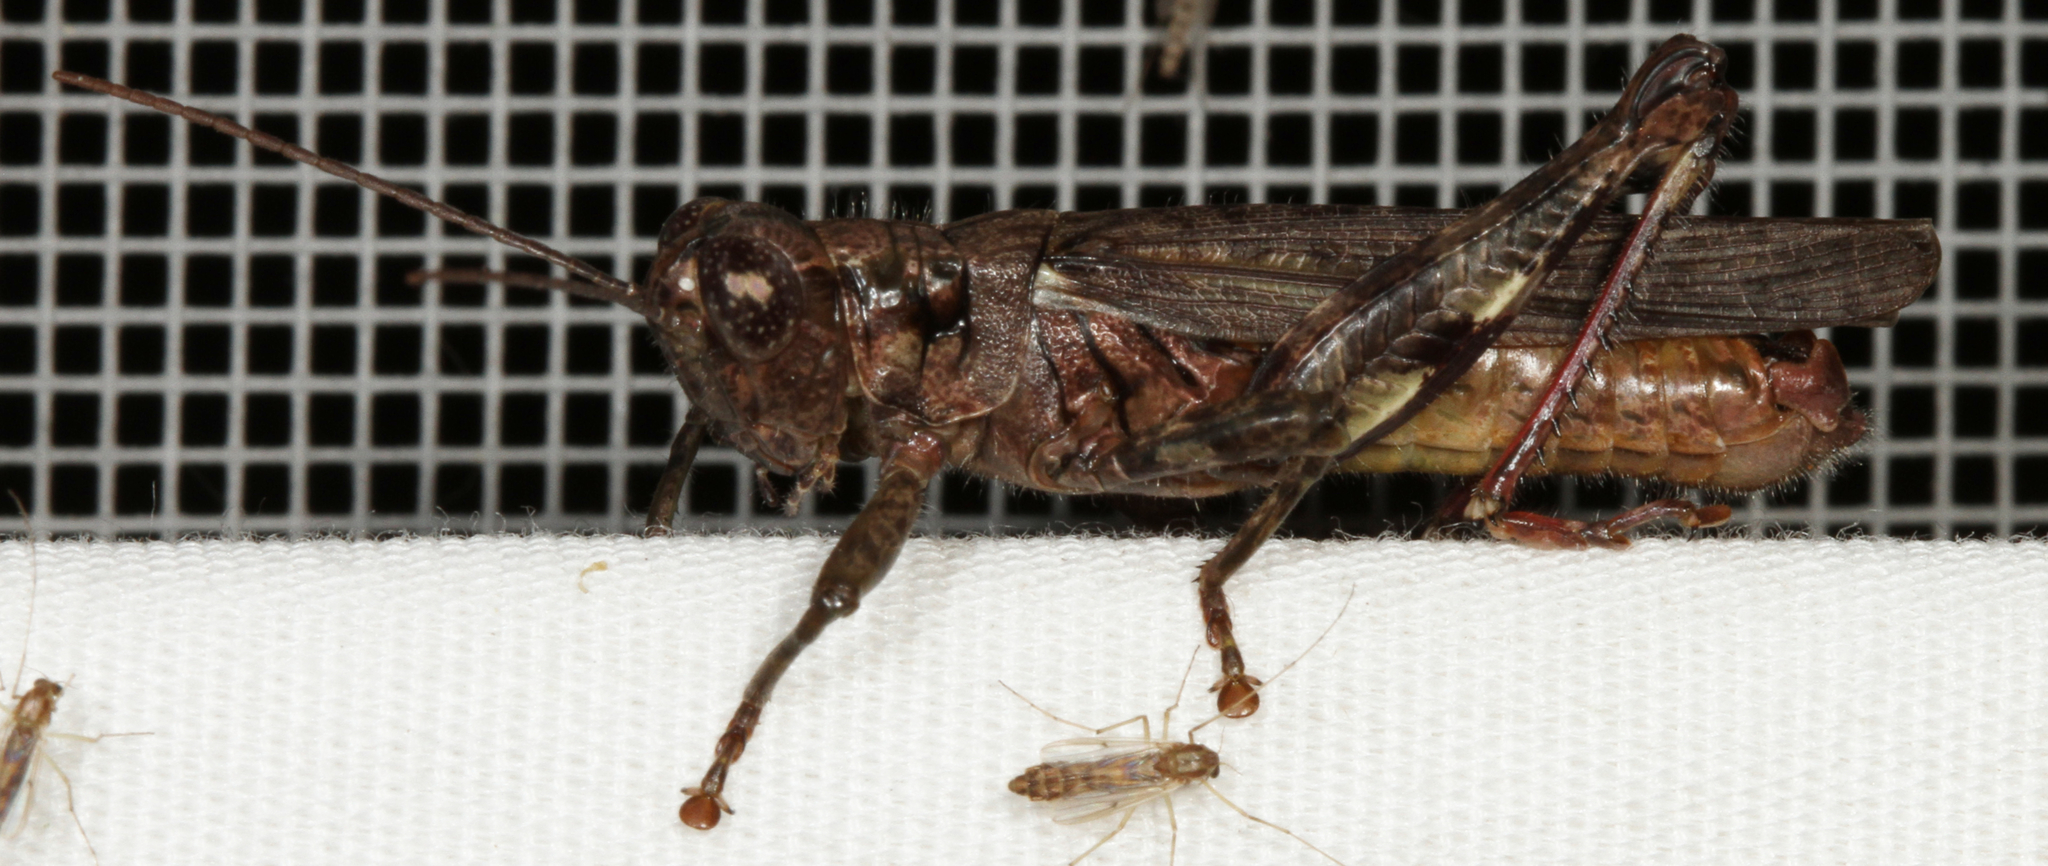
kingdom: Animalia
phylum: Arthropoda
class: Insecta
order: Orthoptera
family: Acrididae
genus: Melanoplus
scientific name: Melanoplus punctulatus
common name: Pine-tree spur-throat grasshopper
